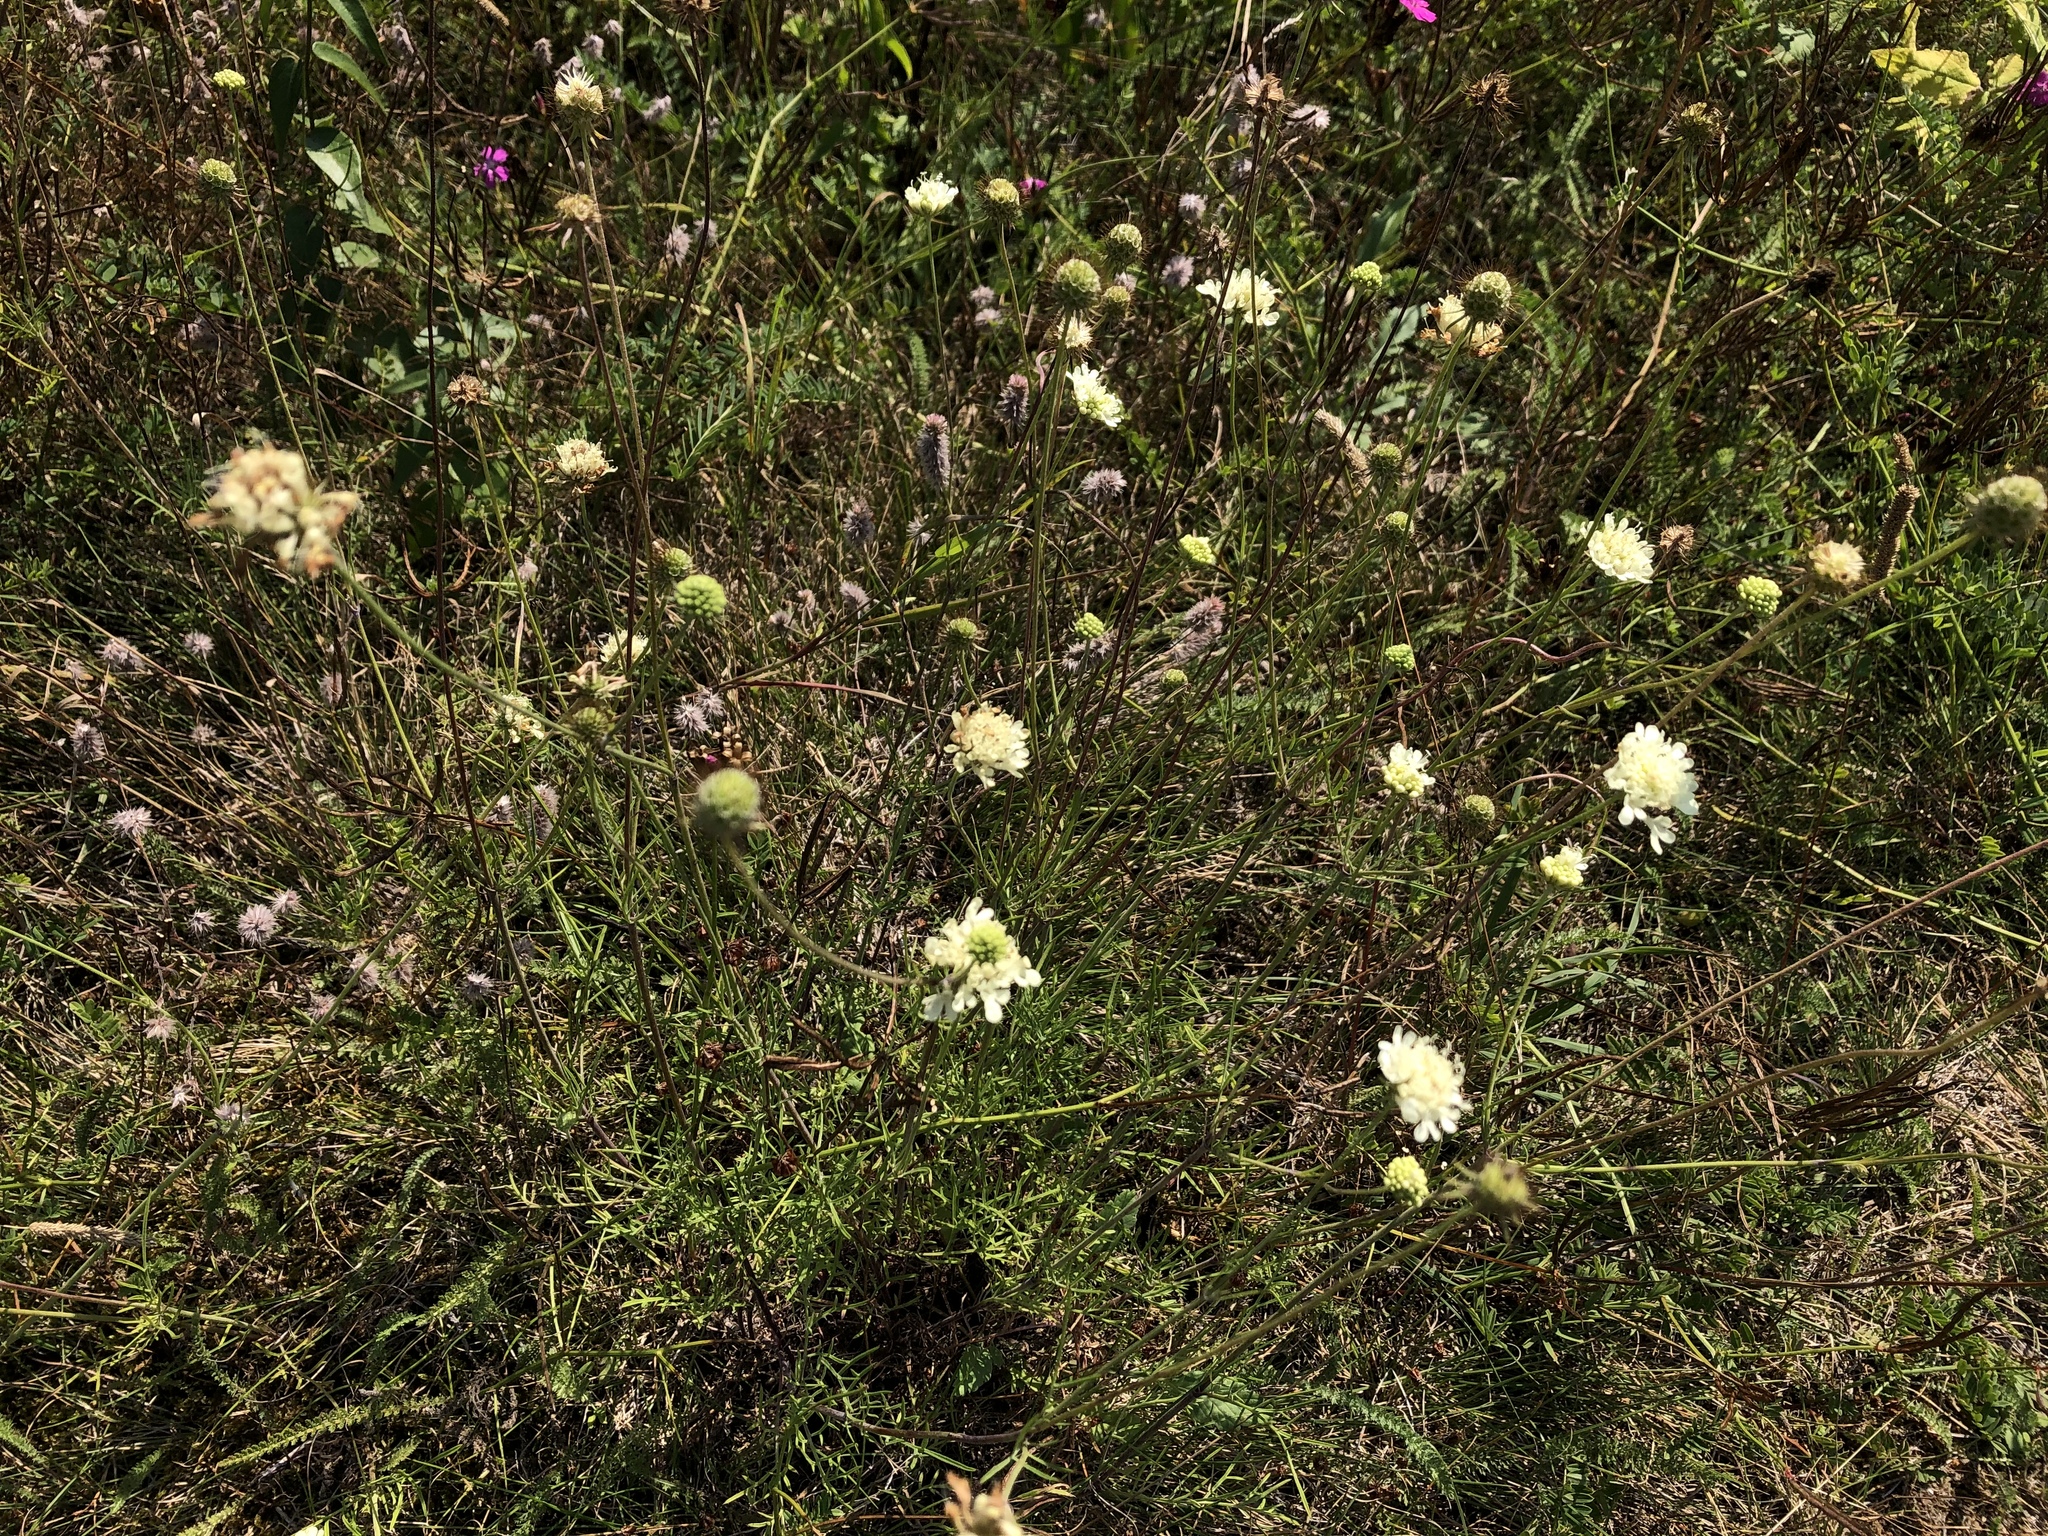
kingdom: Plantae
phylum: Tracheophyta
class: Magnoliopsida
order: Dipsacales
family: Caprifoliaceae
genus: Scabiosa
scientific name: Scabiosa ochroleuca
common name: Cream pincushions
